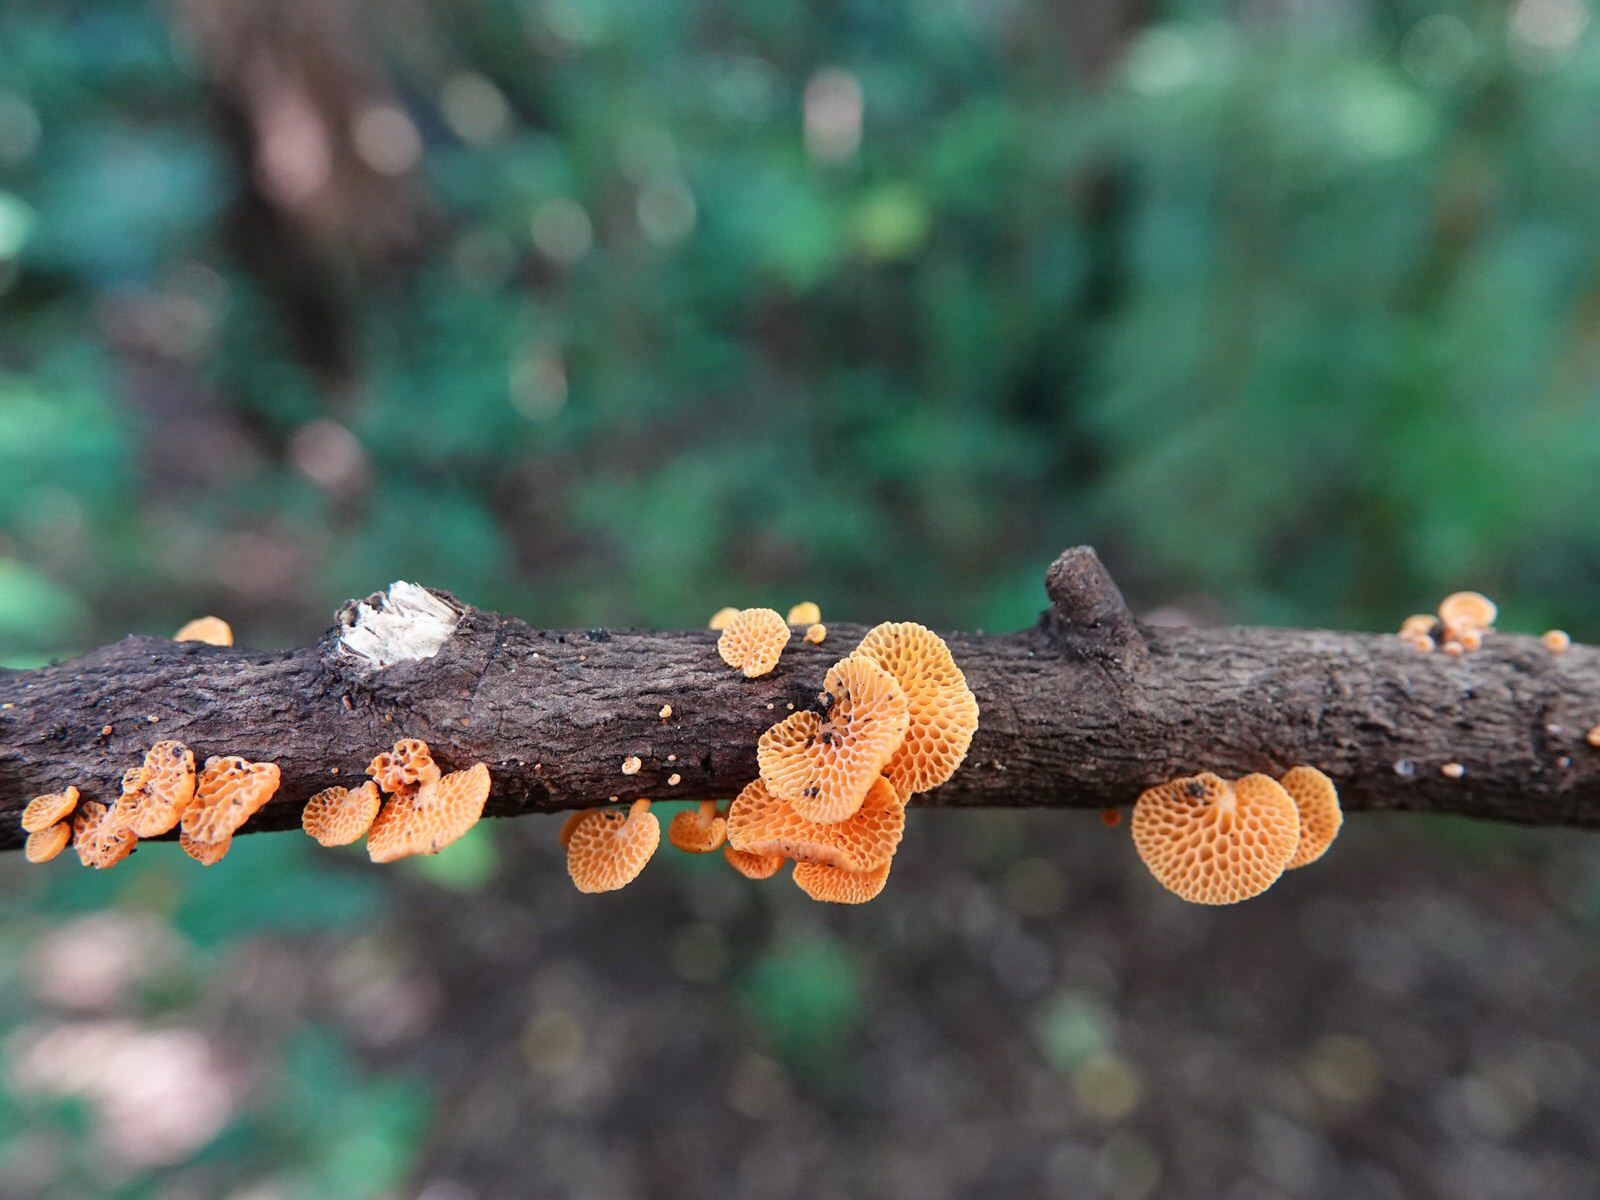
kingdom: Fungi
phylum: Basidiomycota
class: Agaricomycetes
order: Agaricales
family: Mycenaceae
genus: Favolaschia
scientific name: Favolaschia claudopus
